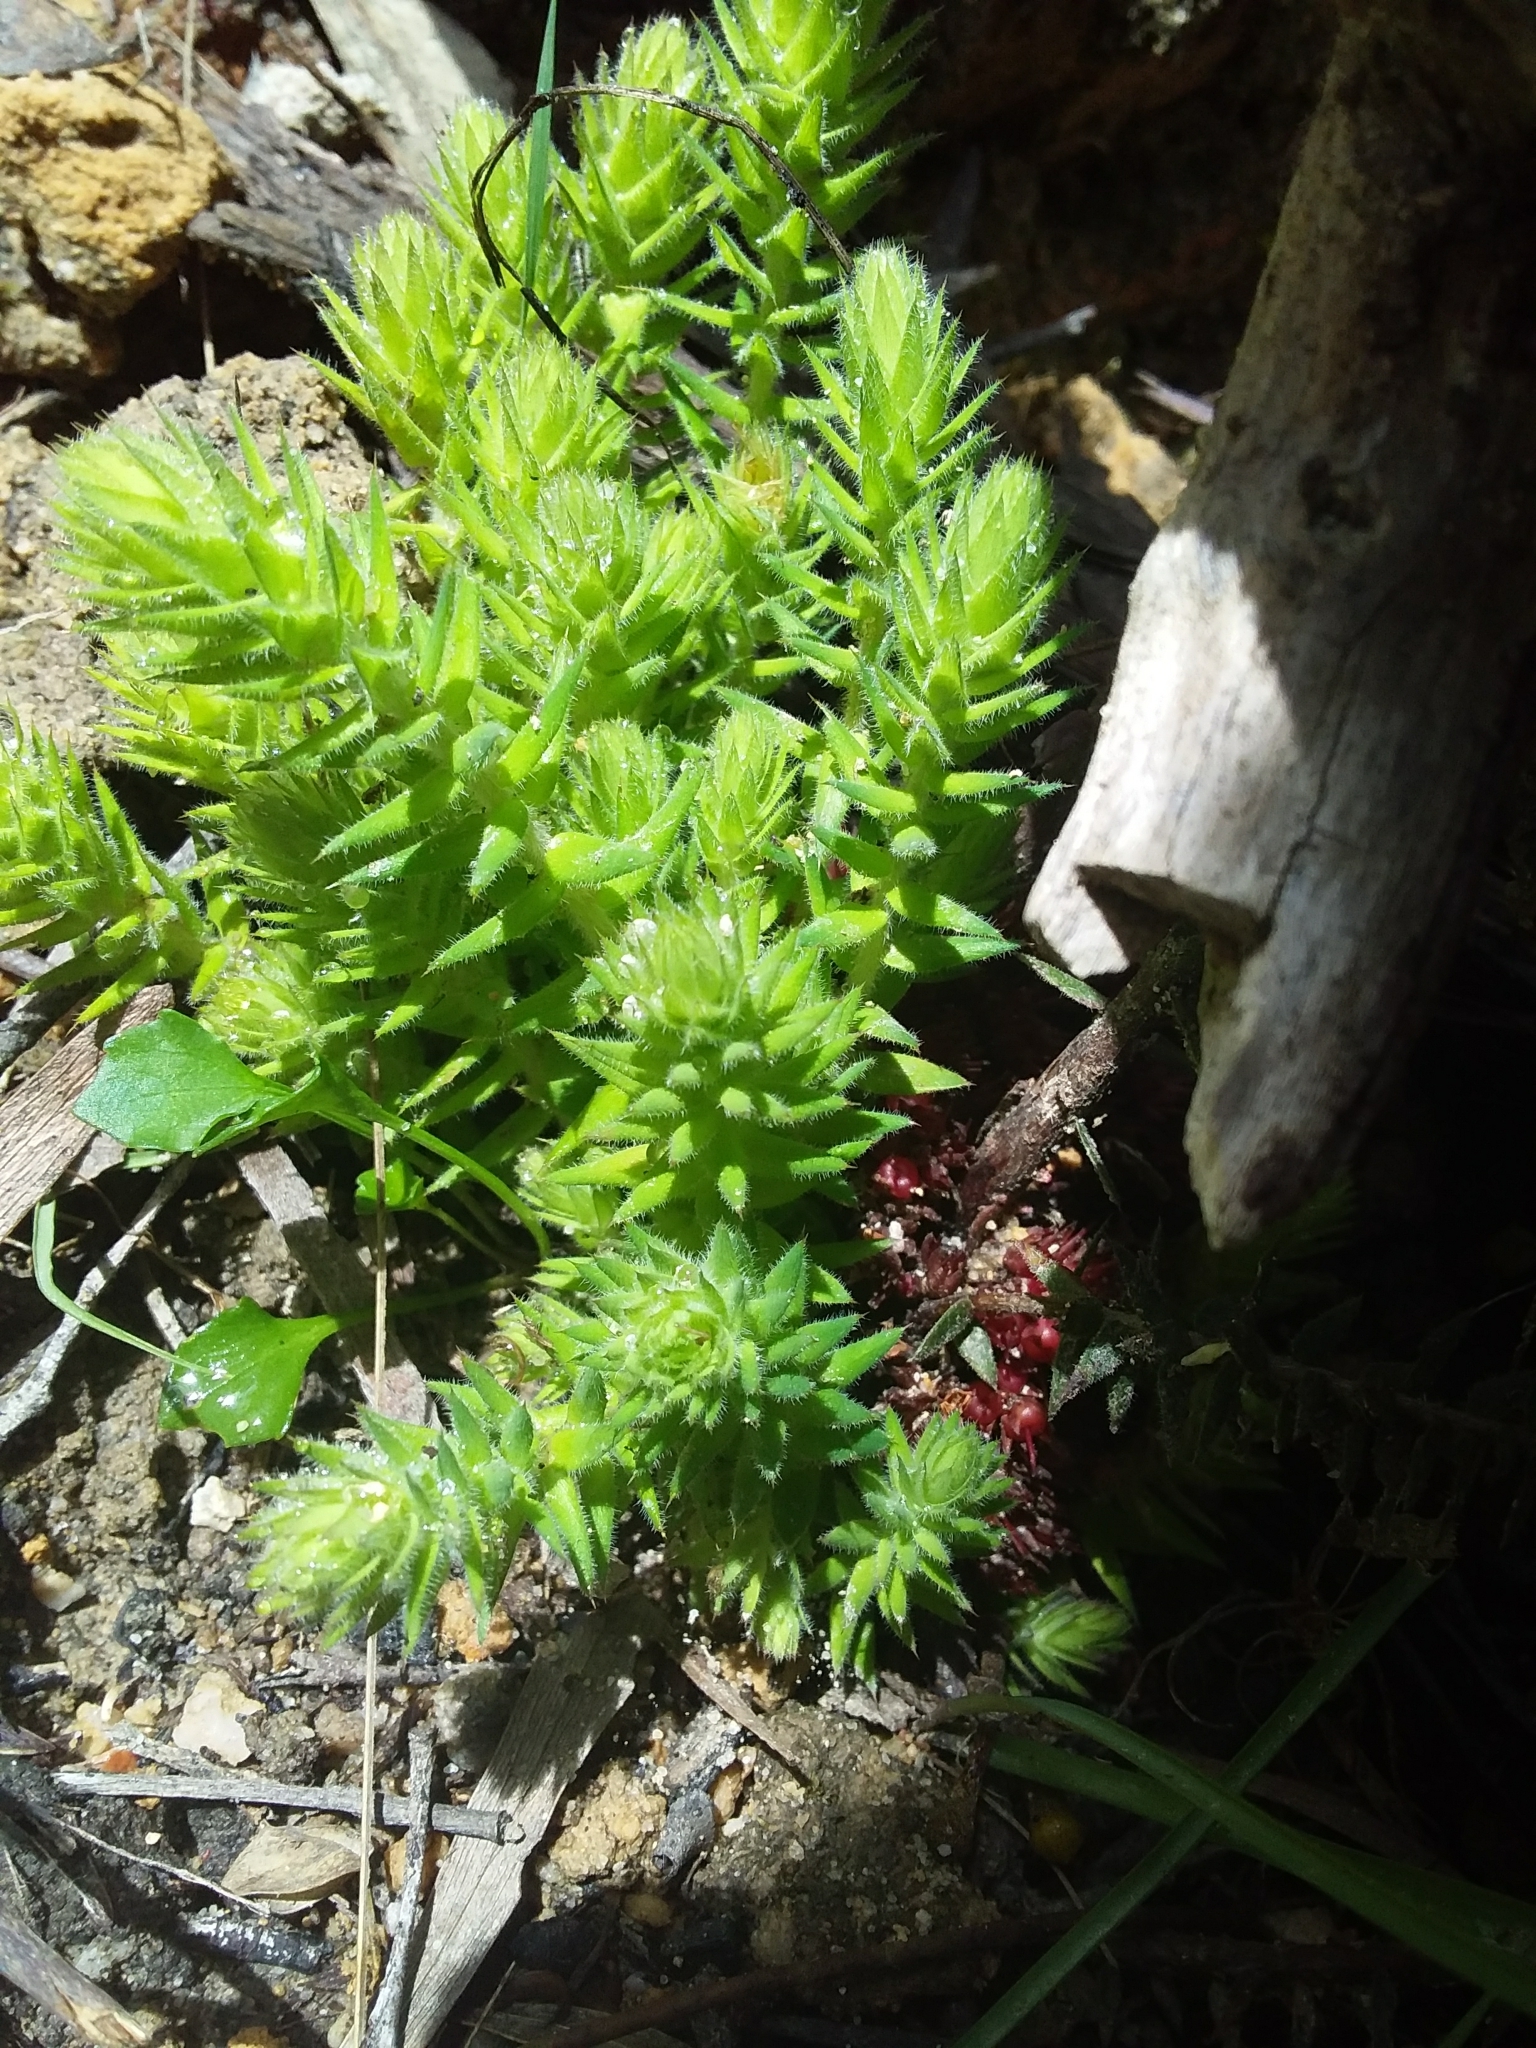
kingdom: Plantae
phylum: Tracheophyta
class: Magnoliopsida
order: Ericales
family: Ericaceae
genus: Acrotriche
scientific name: Acrotriche fasciculiflora
